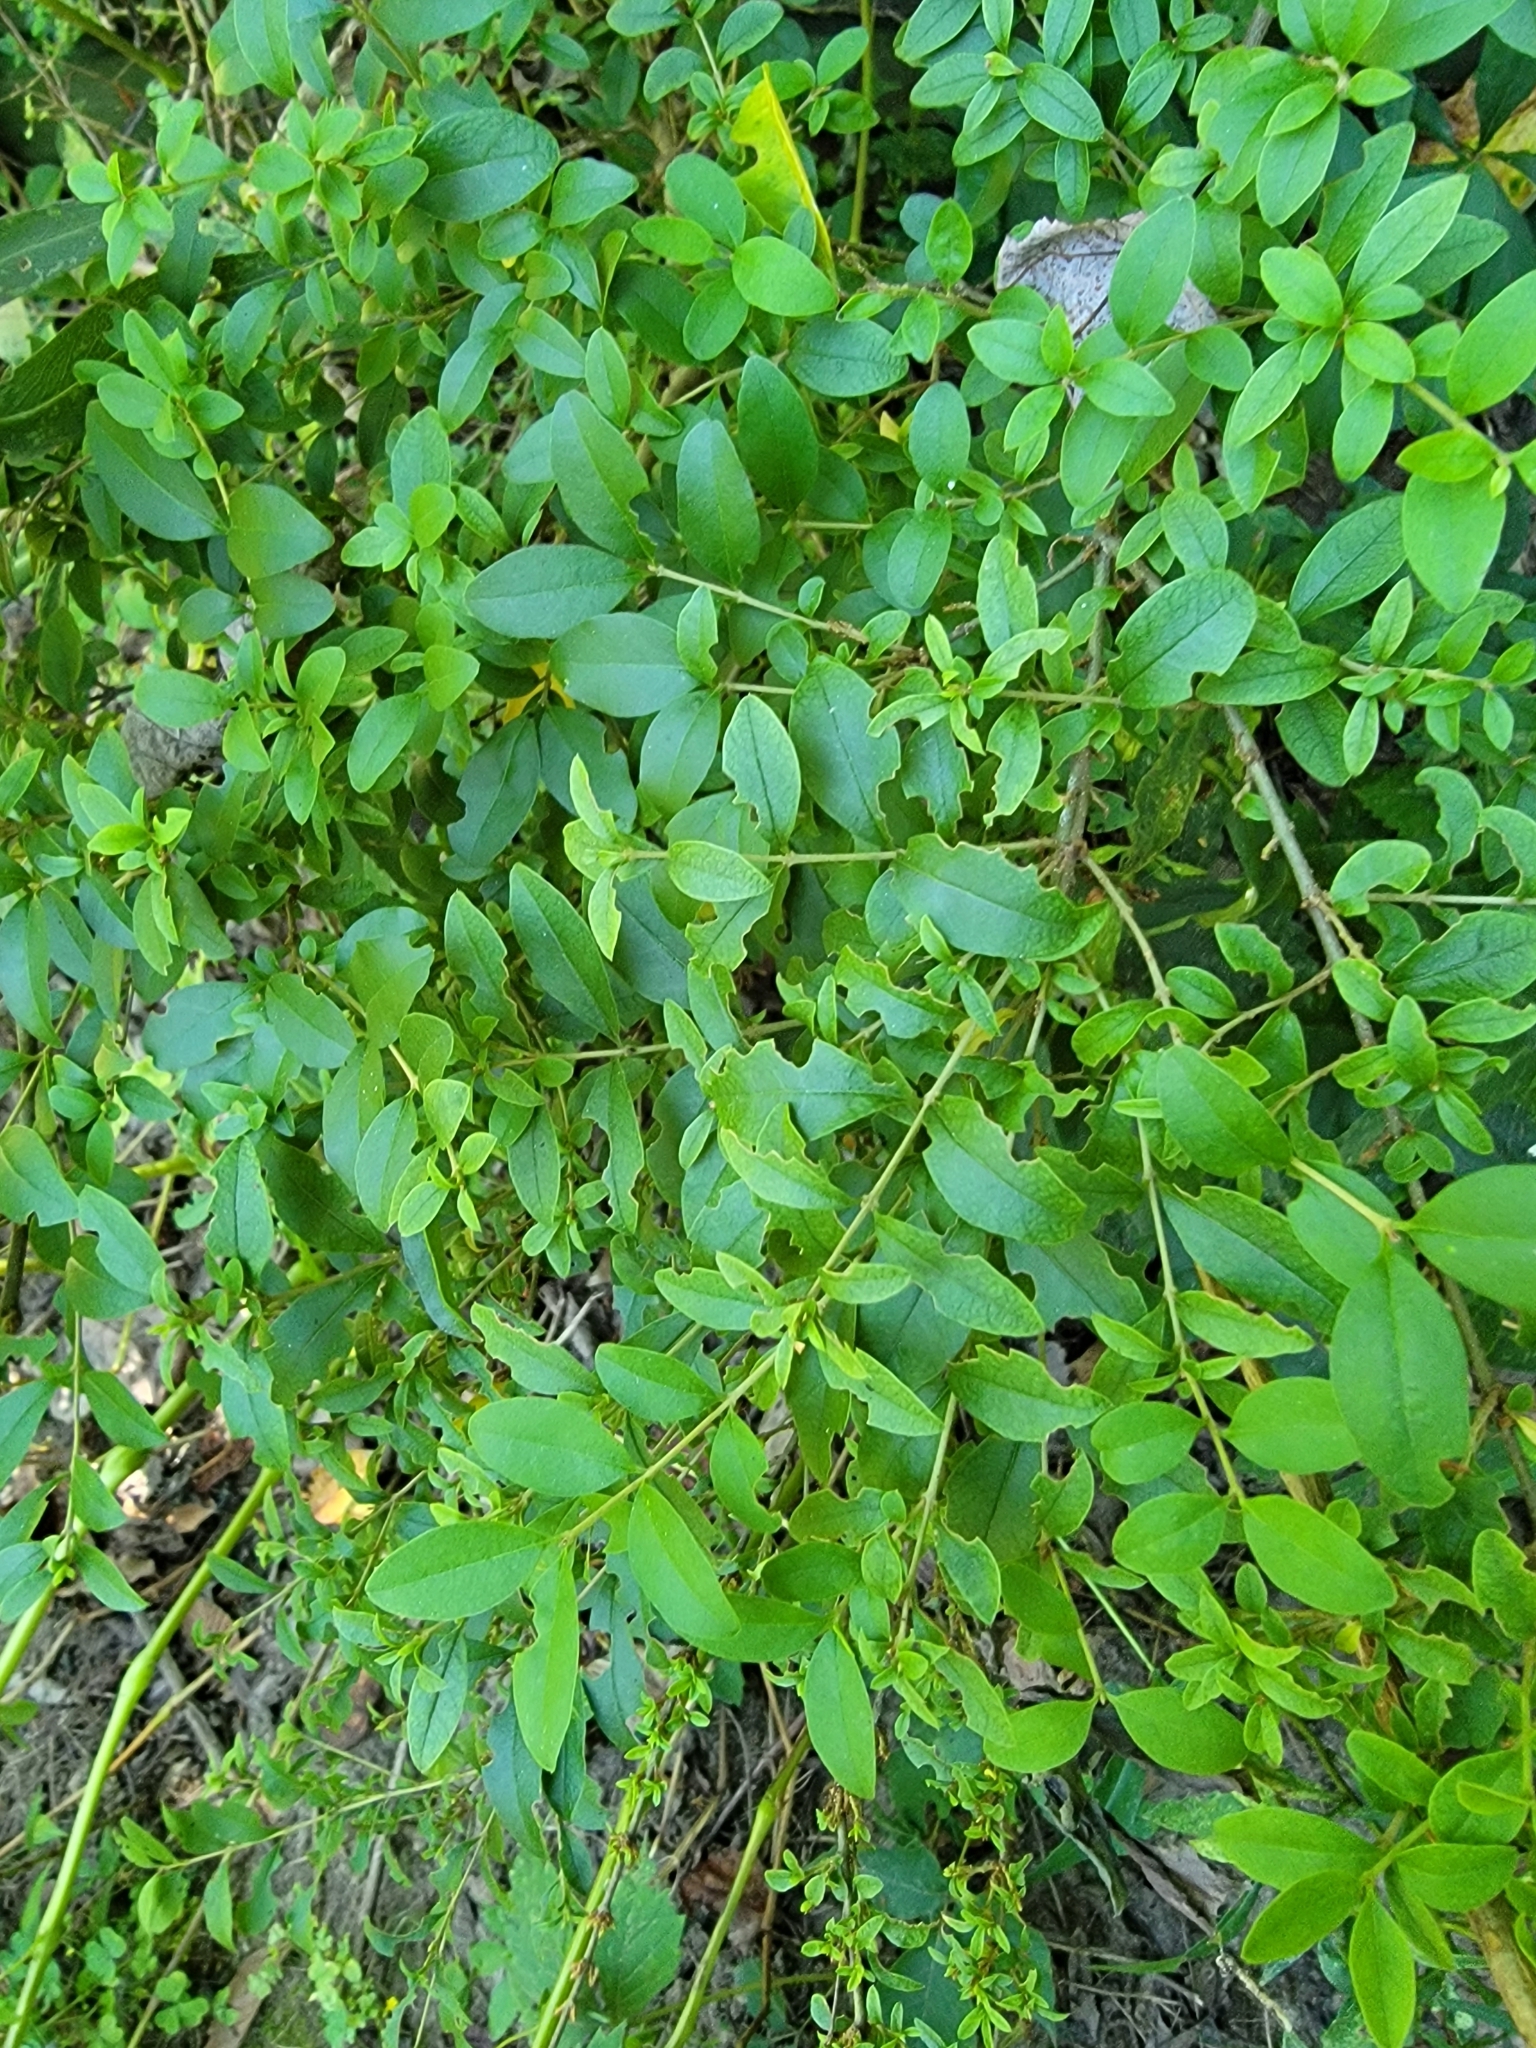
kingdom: Plantae
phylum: Tracheophyta
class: Magnoliopsida
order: Lamiales
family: Oleaceae
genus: Ligustrum
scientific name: Ligustrum sinense
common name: Chinese privet
